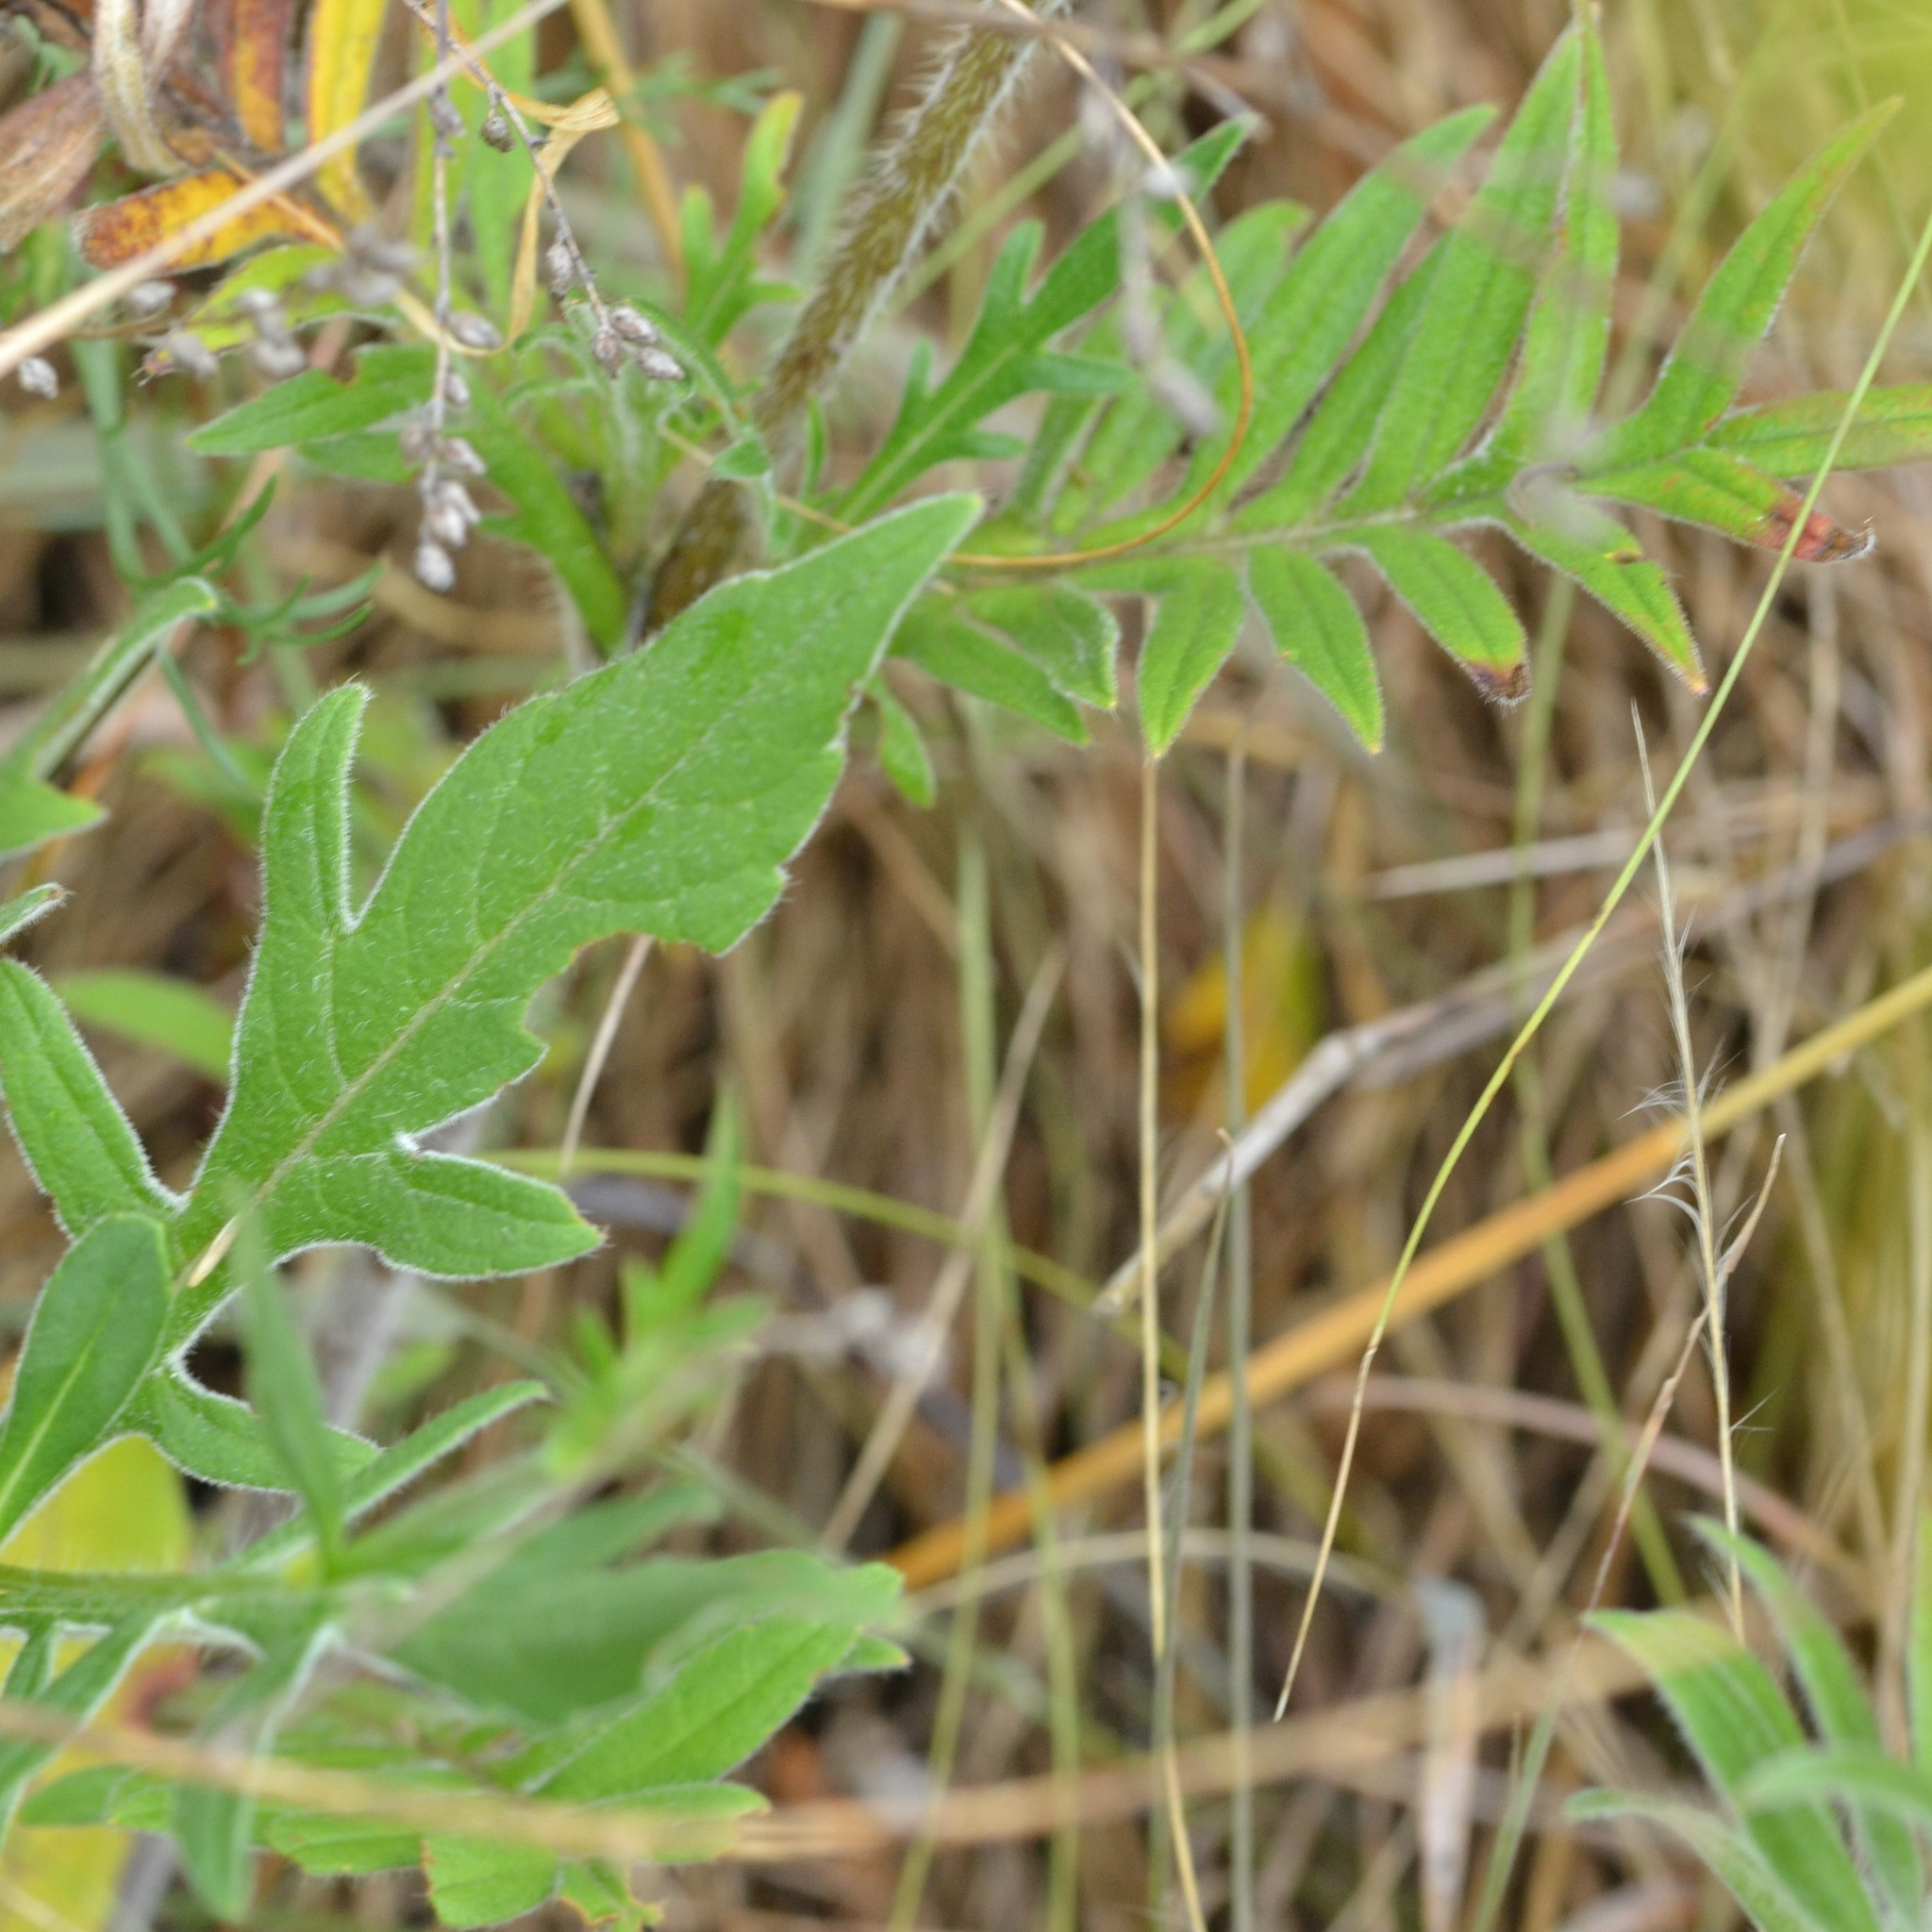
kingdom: Plantae
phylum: Tracheophyta
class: Magnoliopsida
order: Dipsacales
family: Caprifoliaceae
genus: Knautia
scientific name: Knautia arvensis
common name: Field scabiosa
